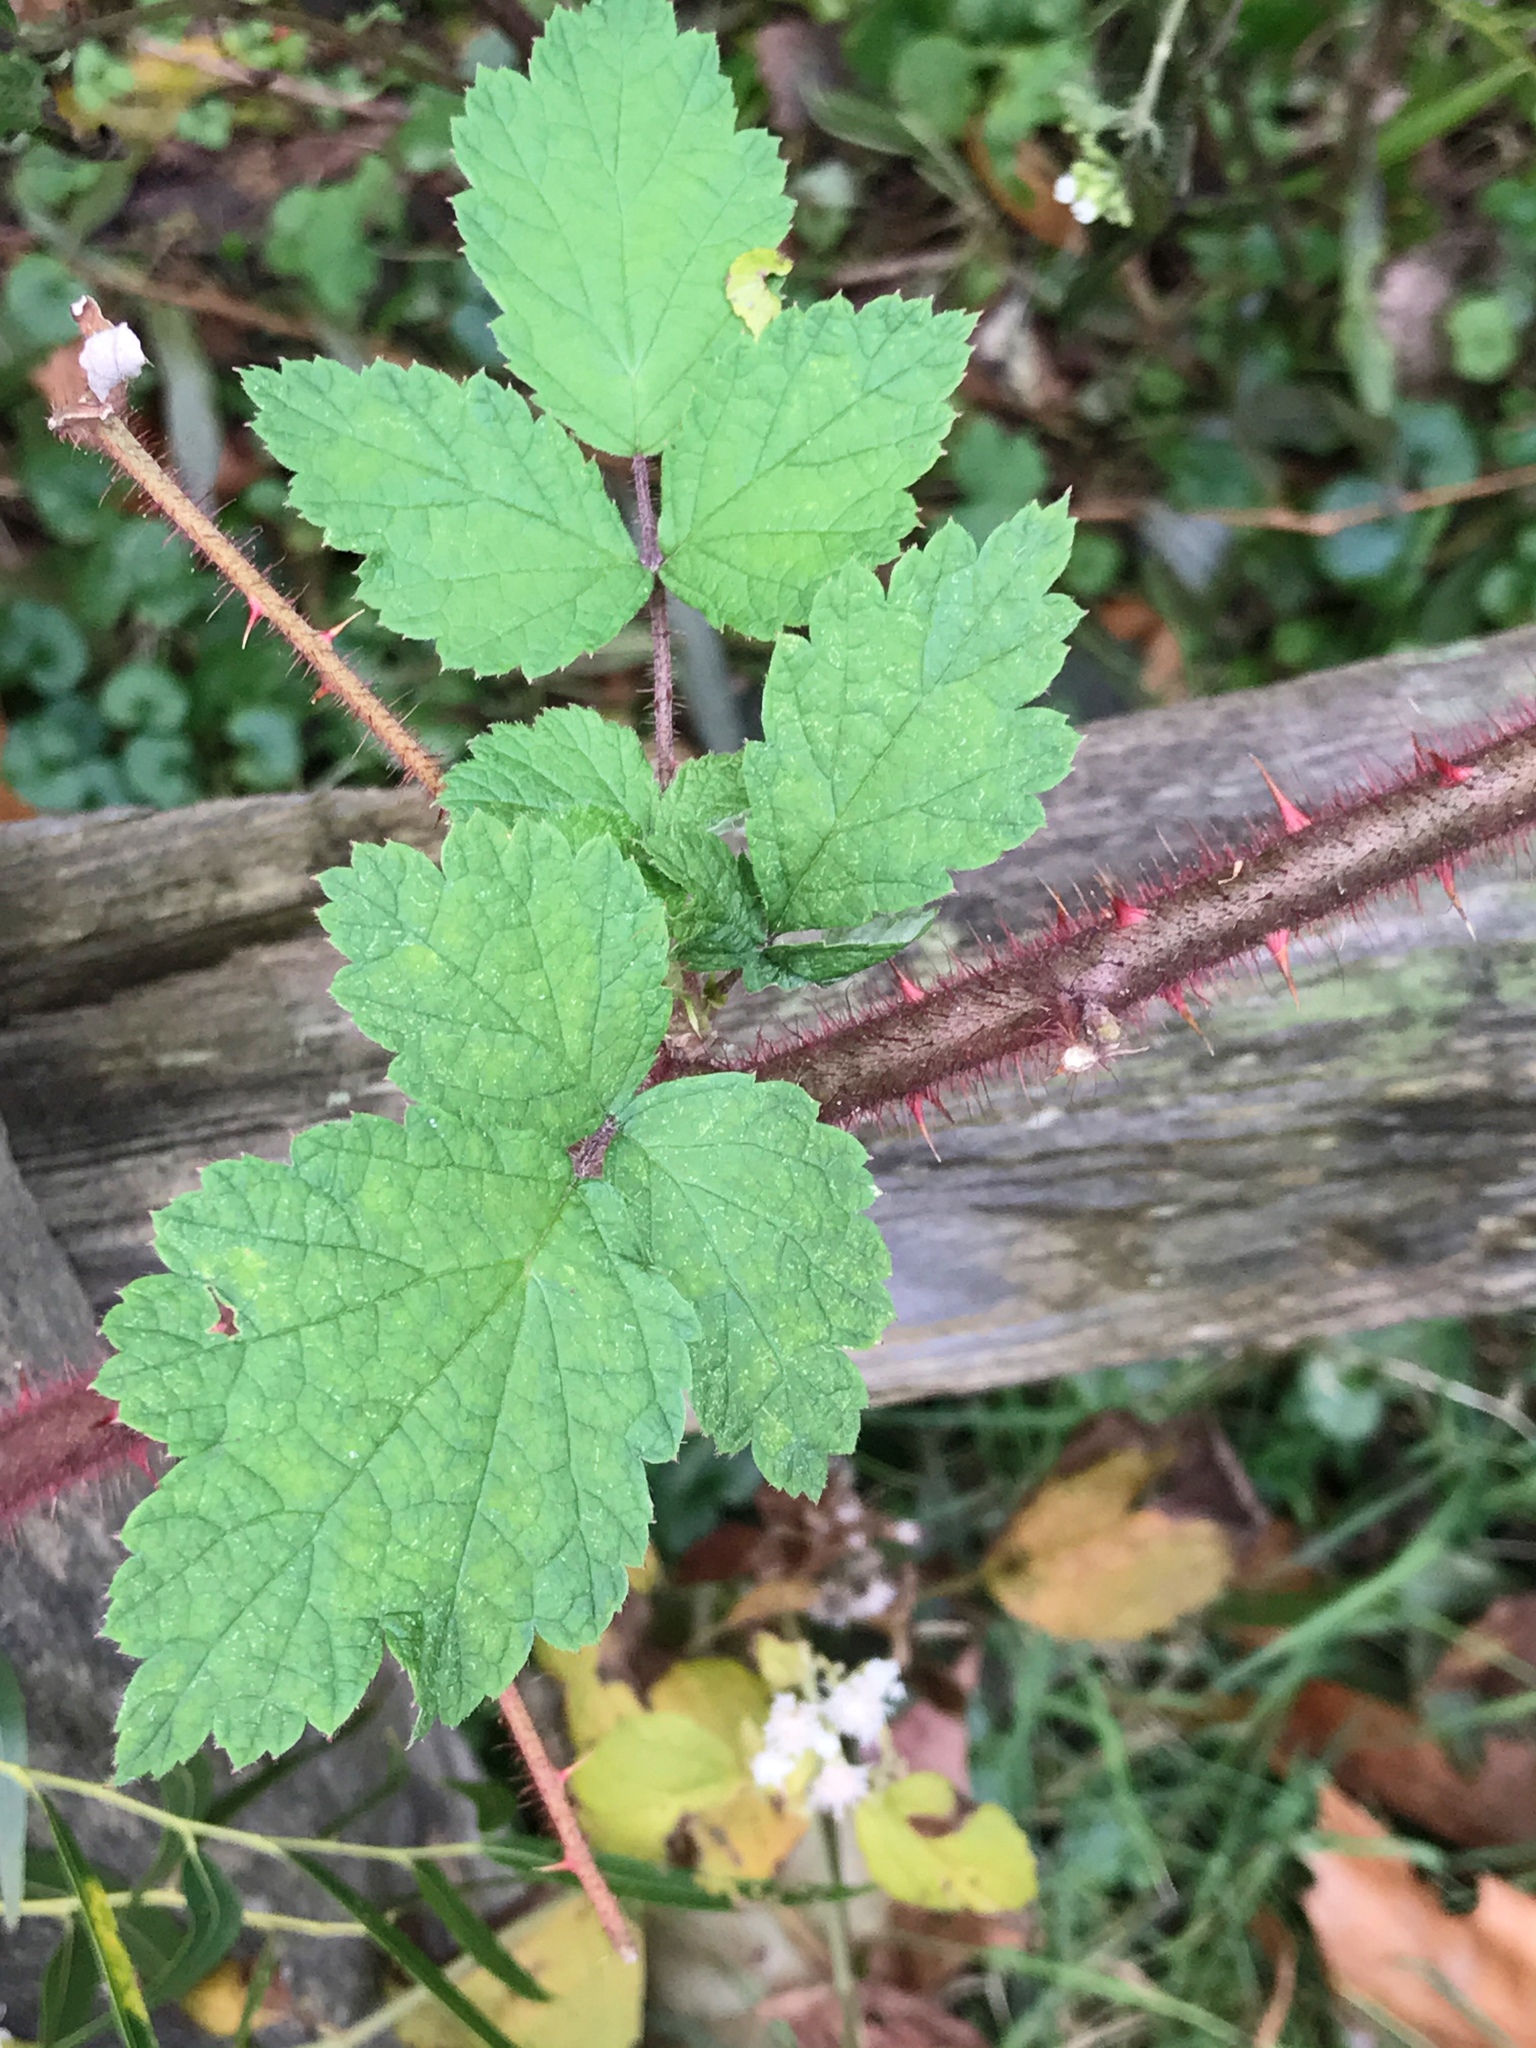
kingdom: Plantae
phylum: Tracheophyta
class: Magnoliopsida
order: Rosales
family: Rosaceae
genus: Rubus
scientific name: Rubus phoenicolasius
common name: Japanese wineberry
